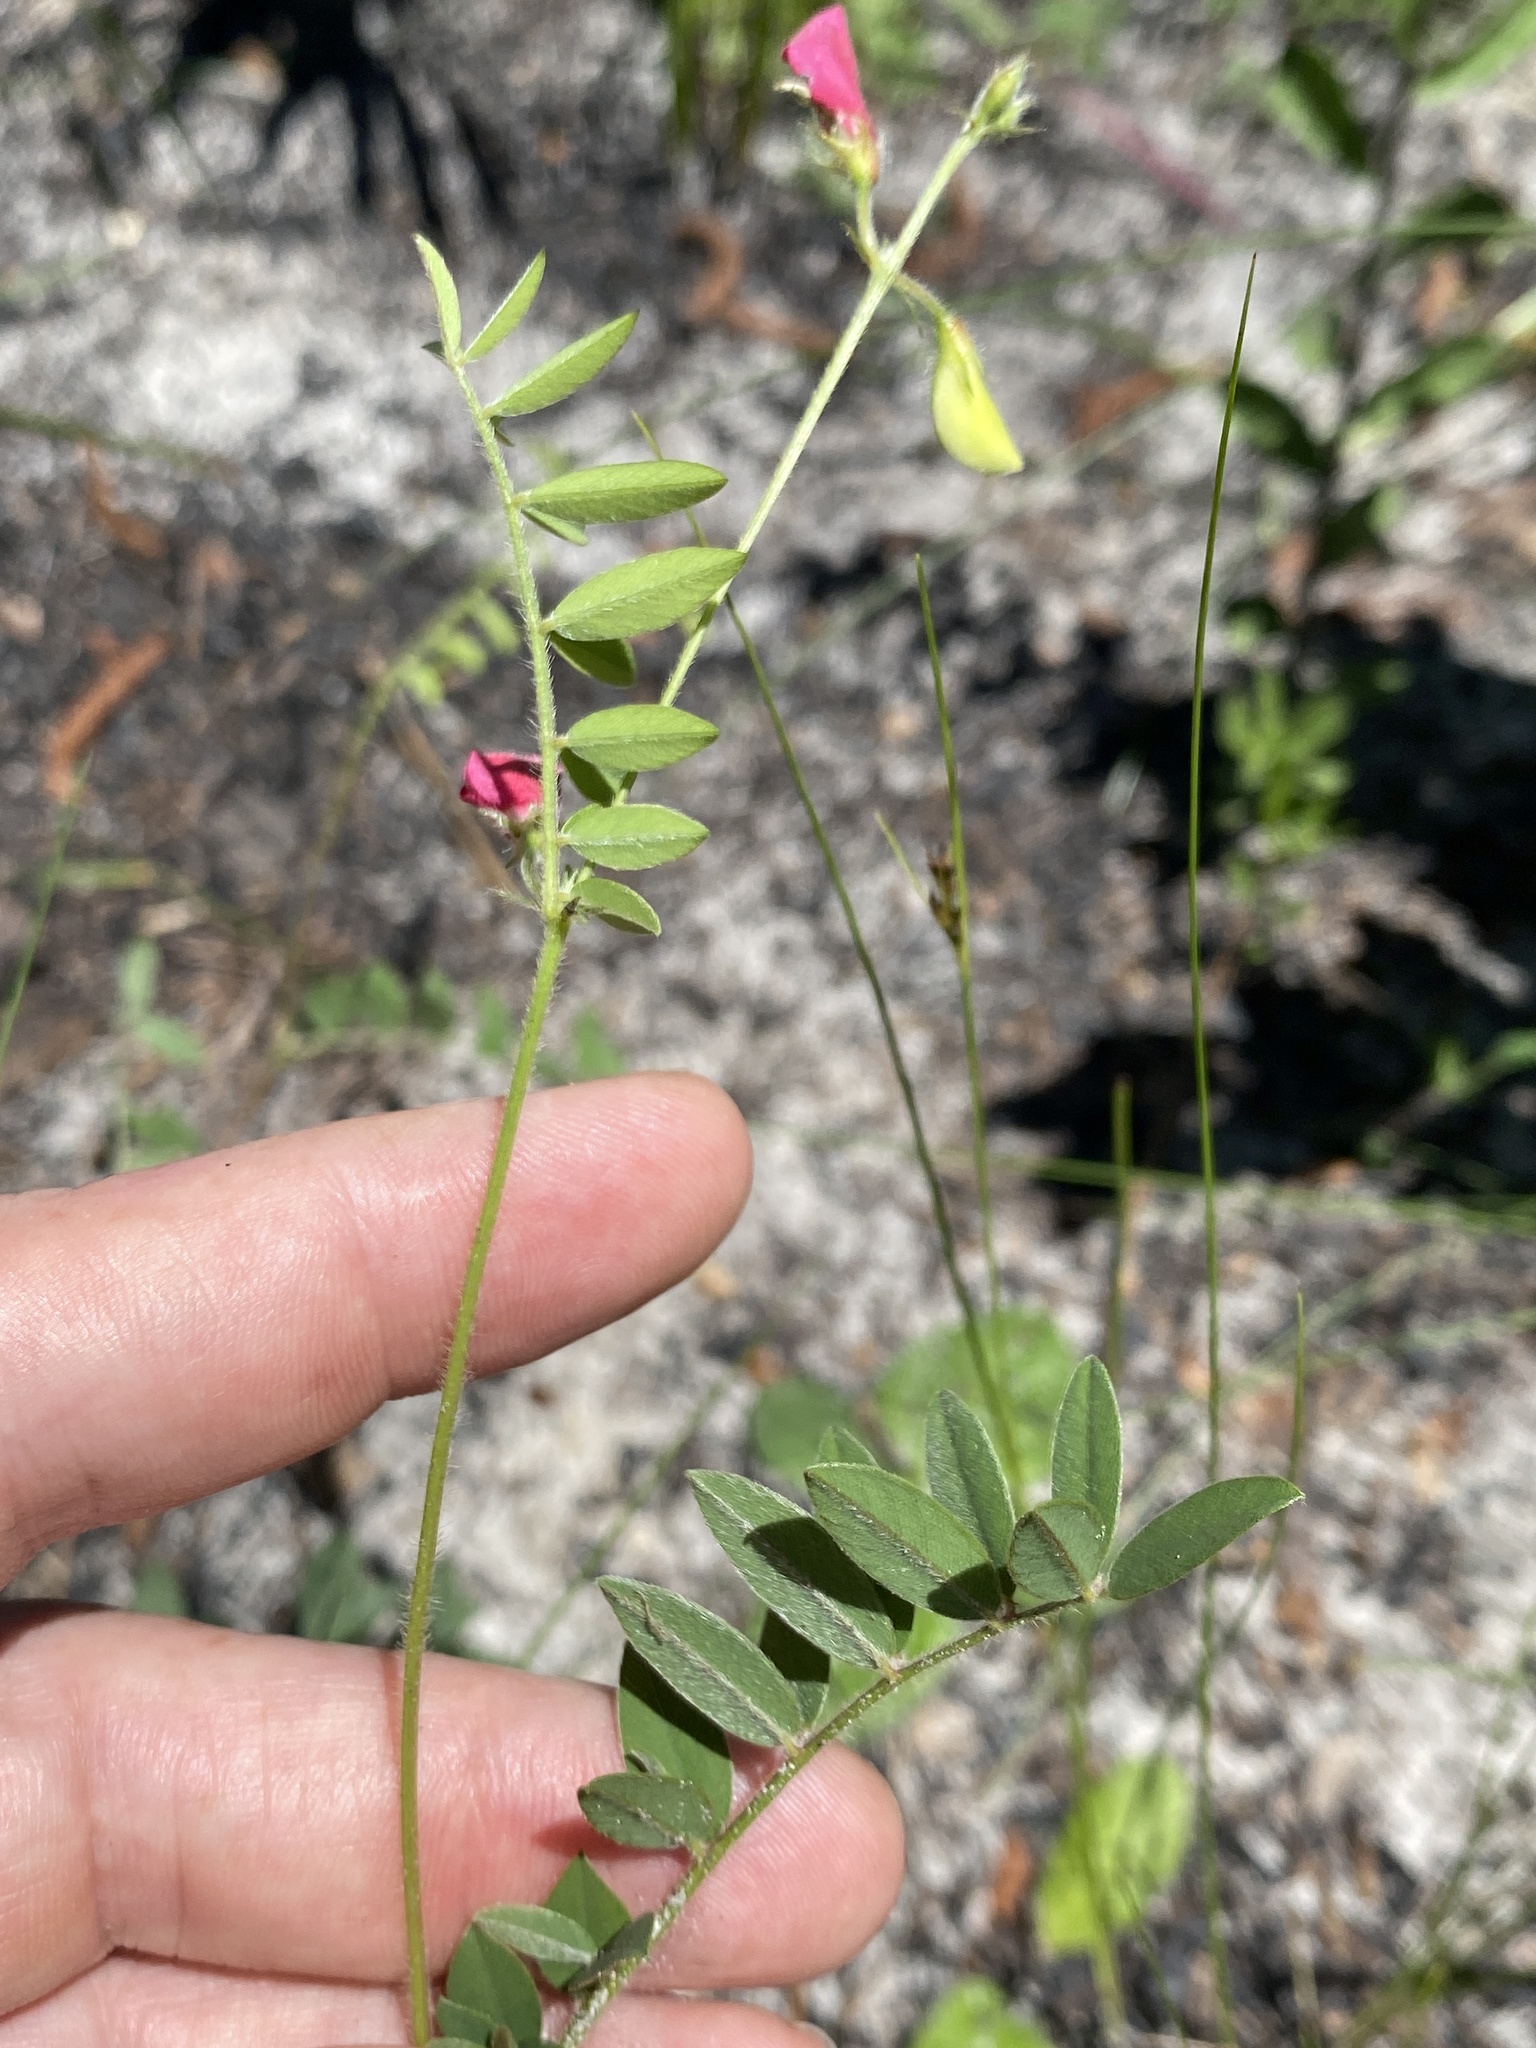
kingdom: Plantae
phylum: Tracheophyta
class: Magnoliopsida
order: Fabales
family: Fabaceae
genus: Tephrosia
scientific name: Tephrosia spicata
